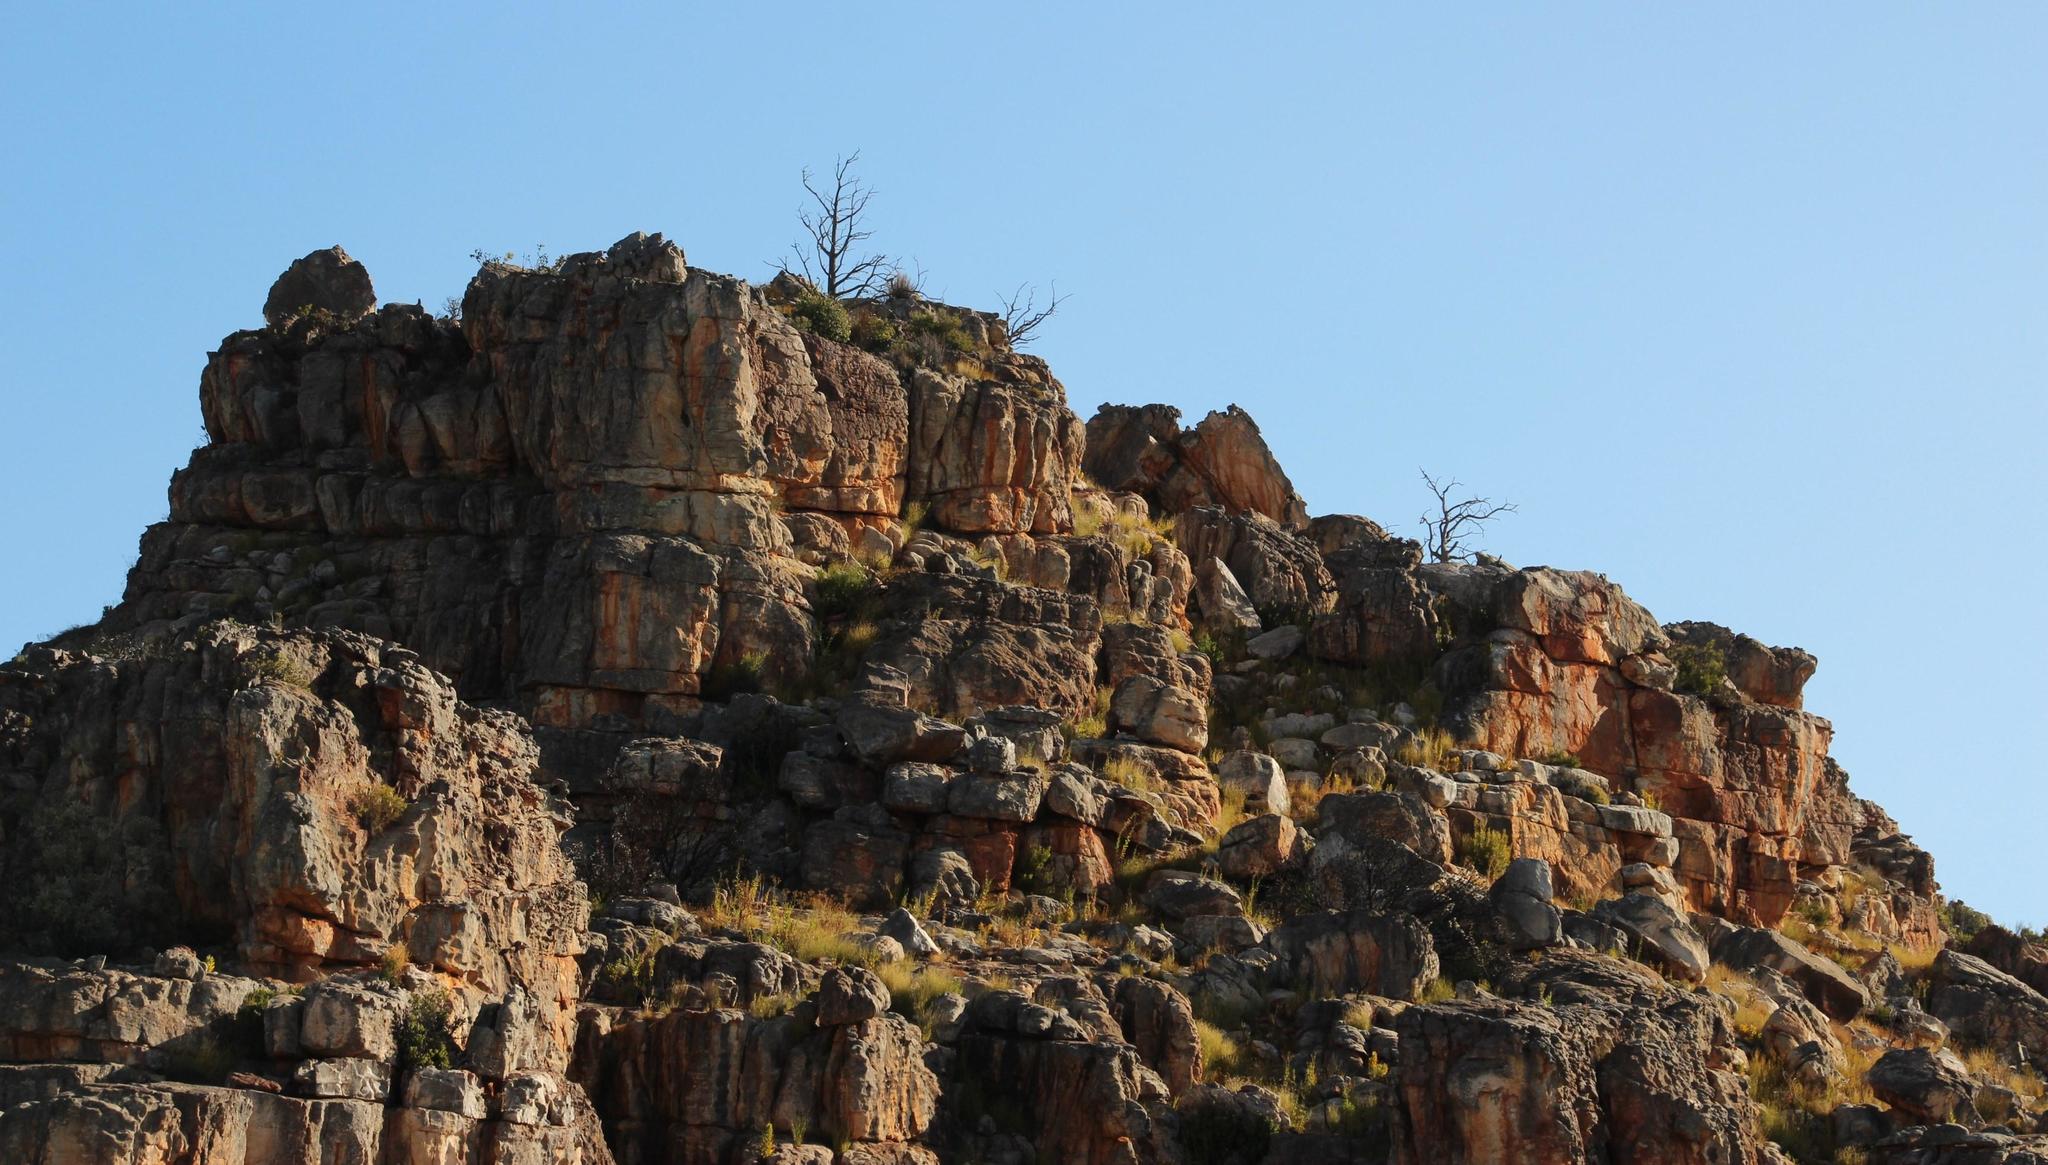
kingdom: Plantae
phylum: Tracheophyta
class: Pinopsida
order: Pinales
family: Cupressaceae
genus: Widdringtonia
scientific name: Widdringtonia nodiflora
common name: Cape cypress
